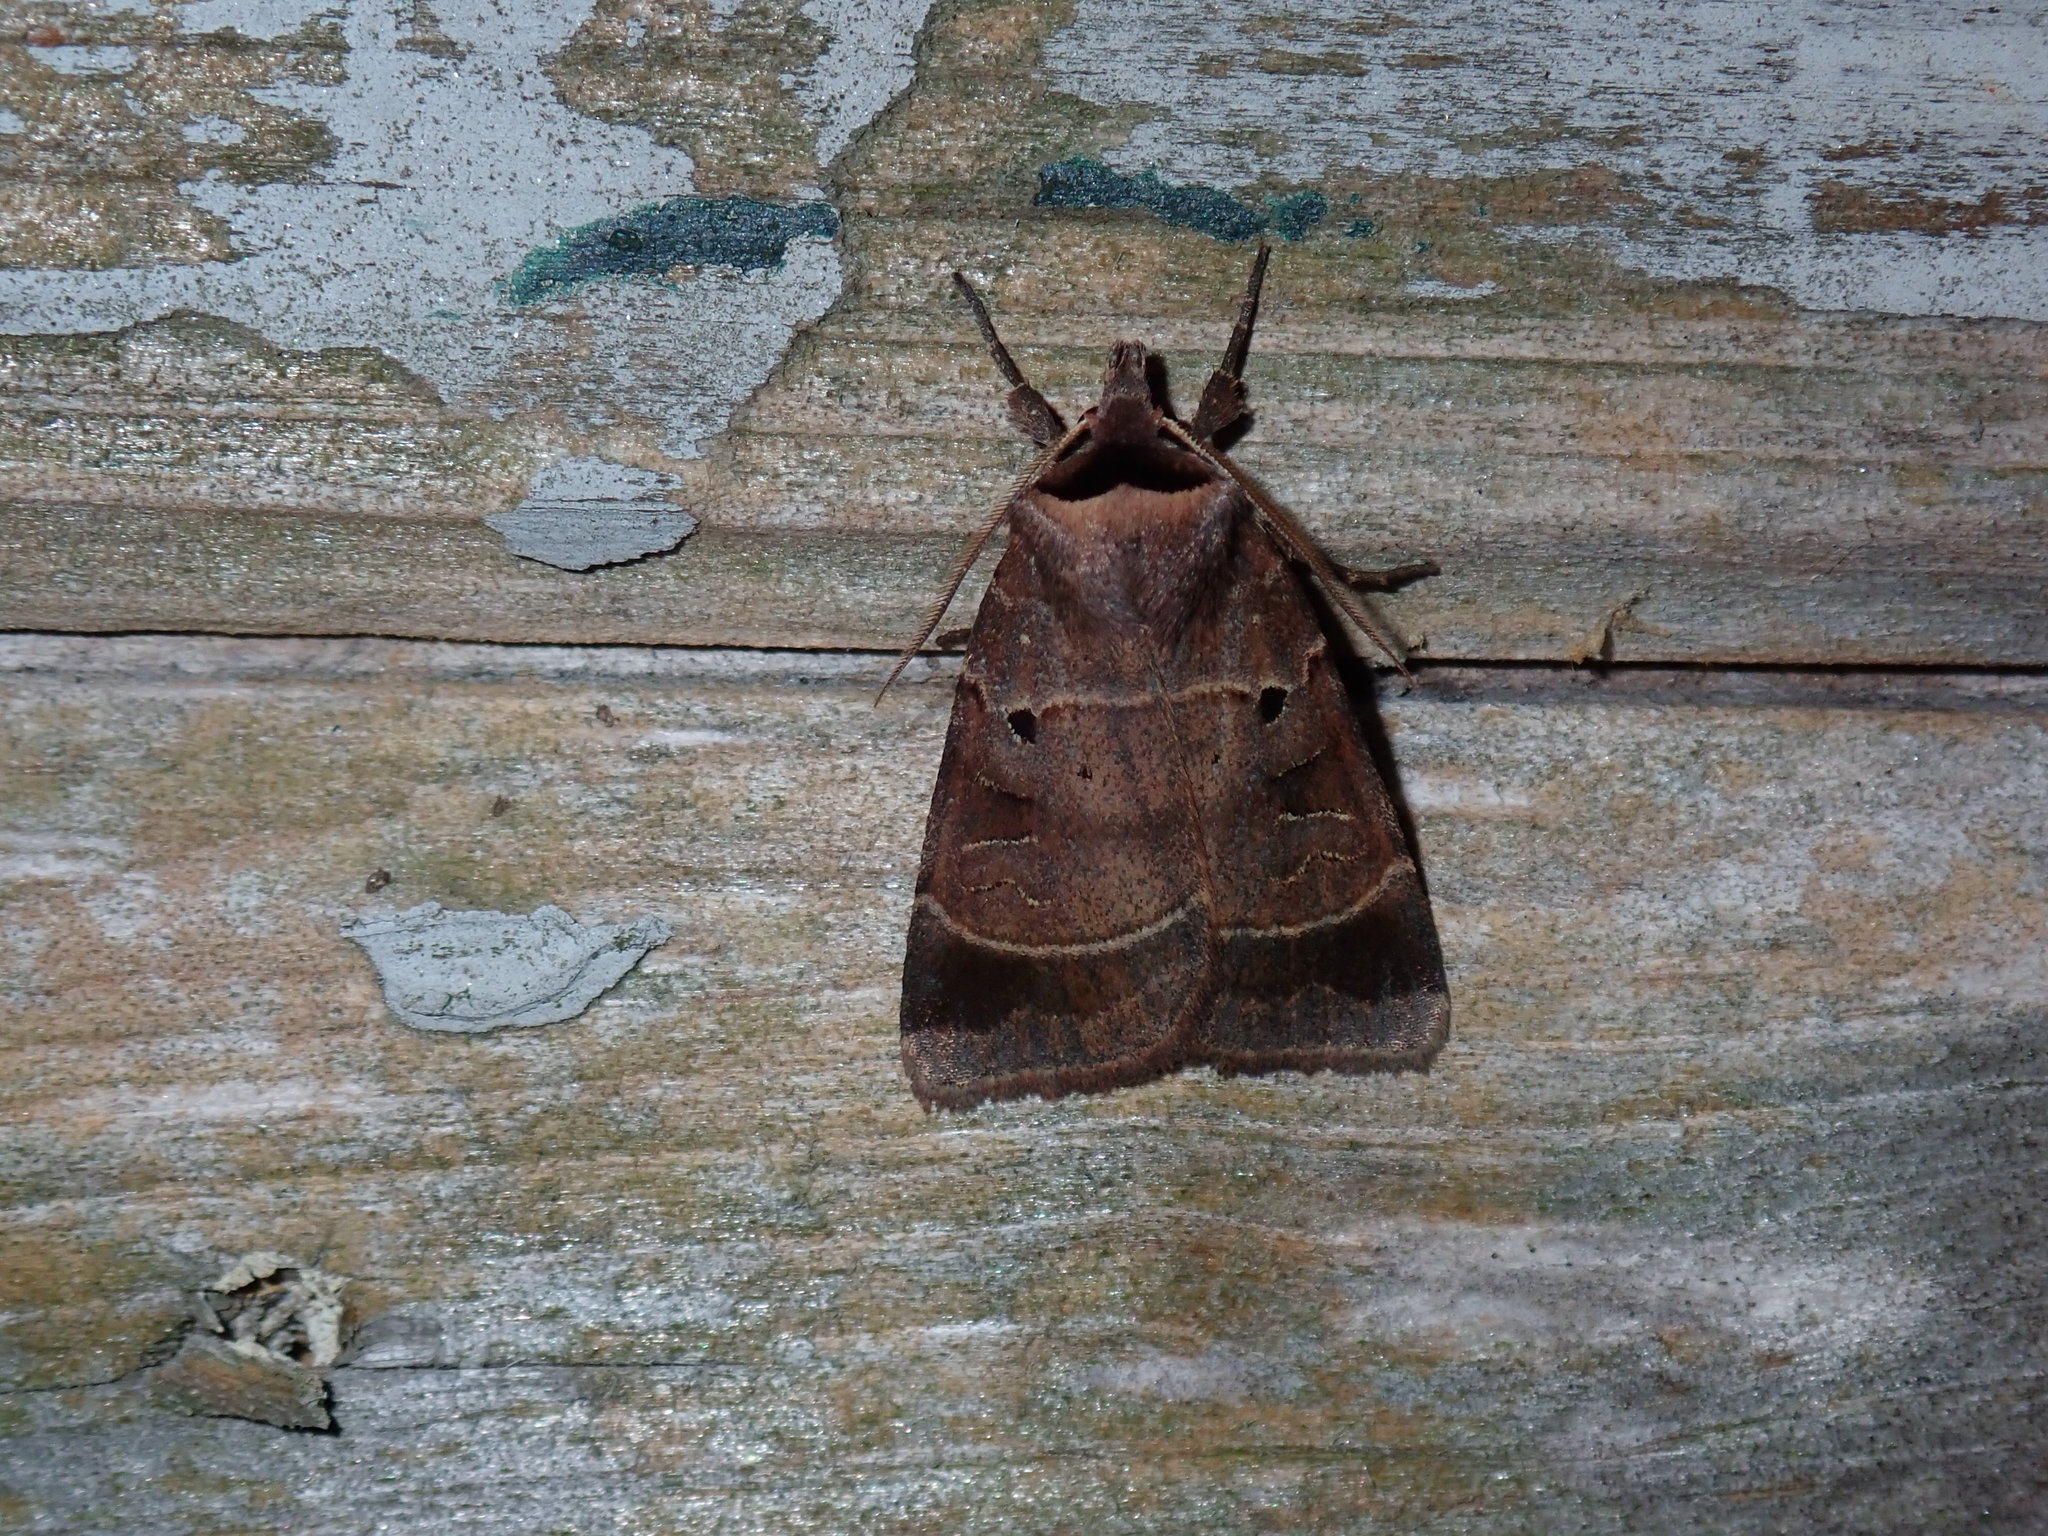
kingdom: Animalia
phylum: Arthropoda
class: Insecta
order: Lepidoptera
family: Noctuidae
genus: Agnorisma
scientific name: Agnorisma badinodis
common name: Pale-banded dart
